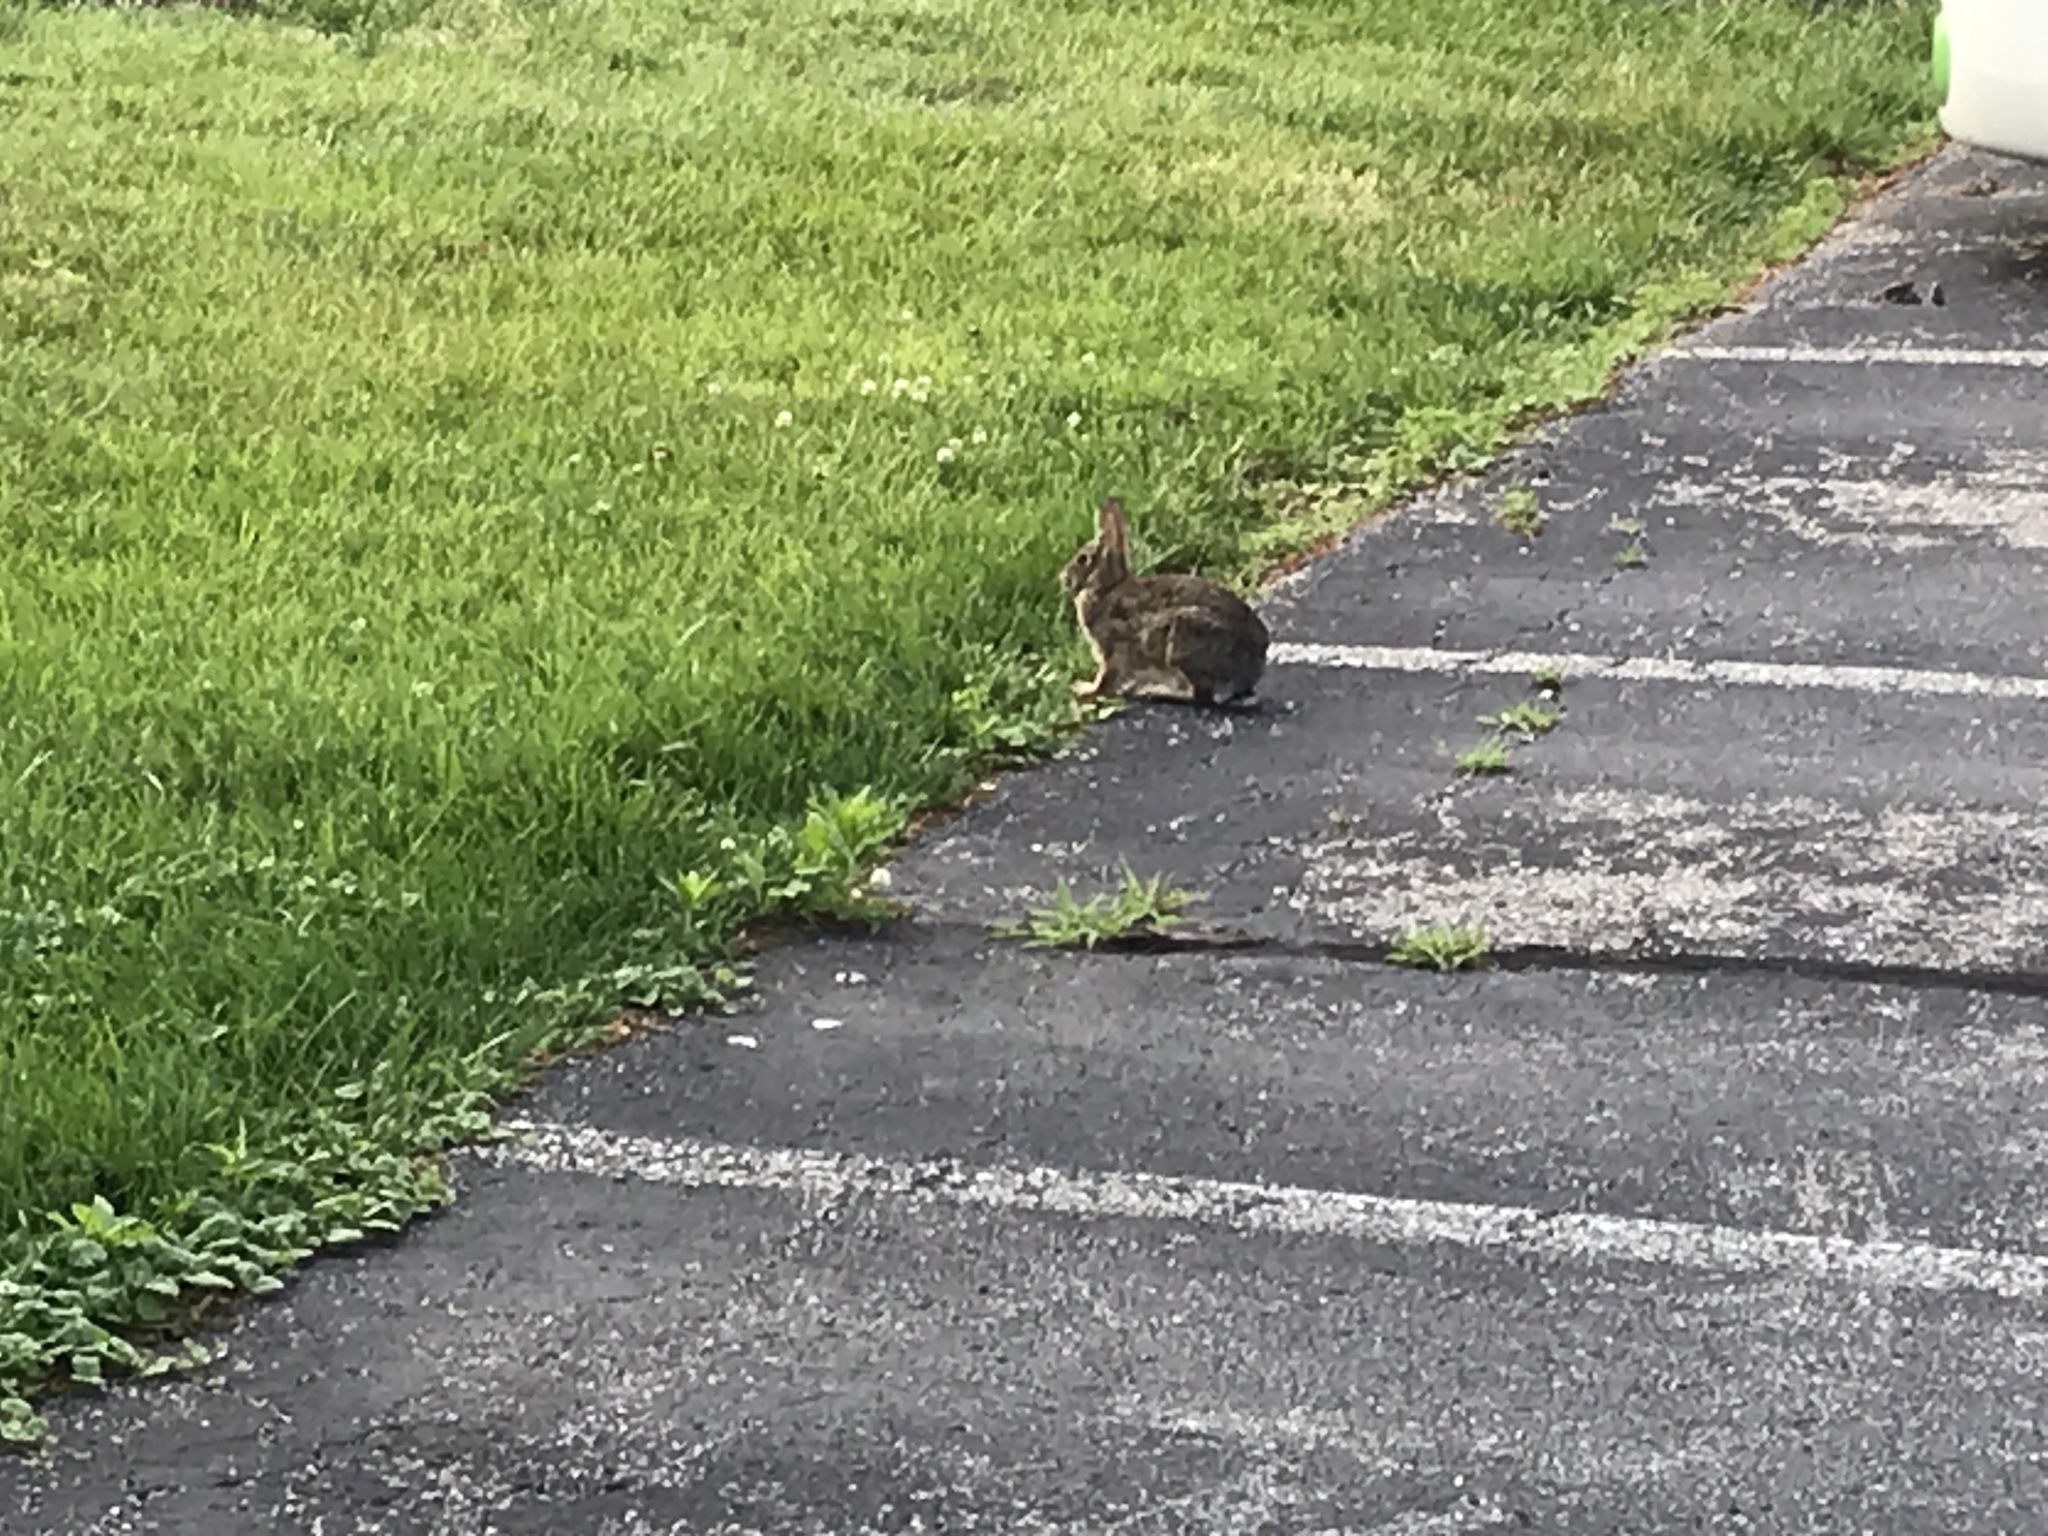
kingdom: Animalia
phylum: Chordata
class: Mammalia
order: Lagomorpha
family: Leporidae
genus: Sylvilagus
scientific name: Sylvilagus floridanus
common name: Eastern cottontail
